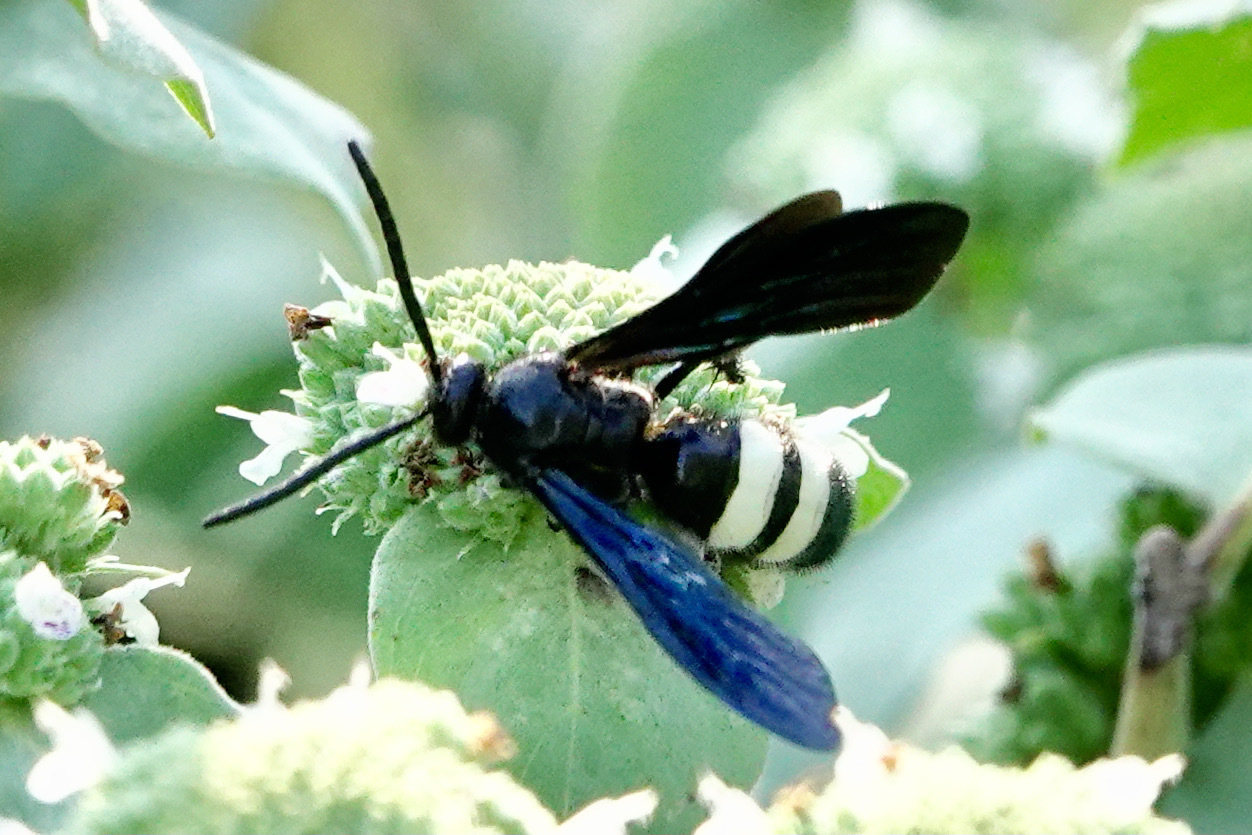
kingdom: Animalia
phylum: Arthropoda
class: Insecta
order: Hymenoptera
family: Scoliidae
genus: Scolia
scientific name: Scolia bicincta
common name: Double-banded scoliid wasp
